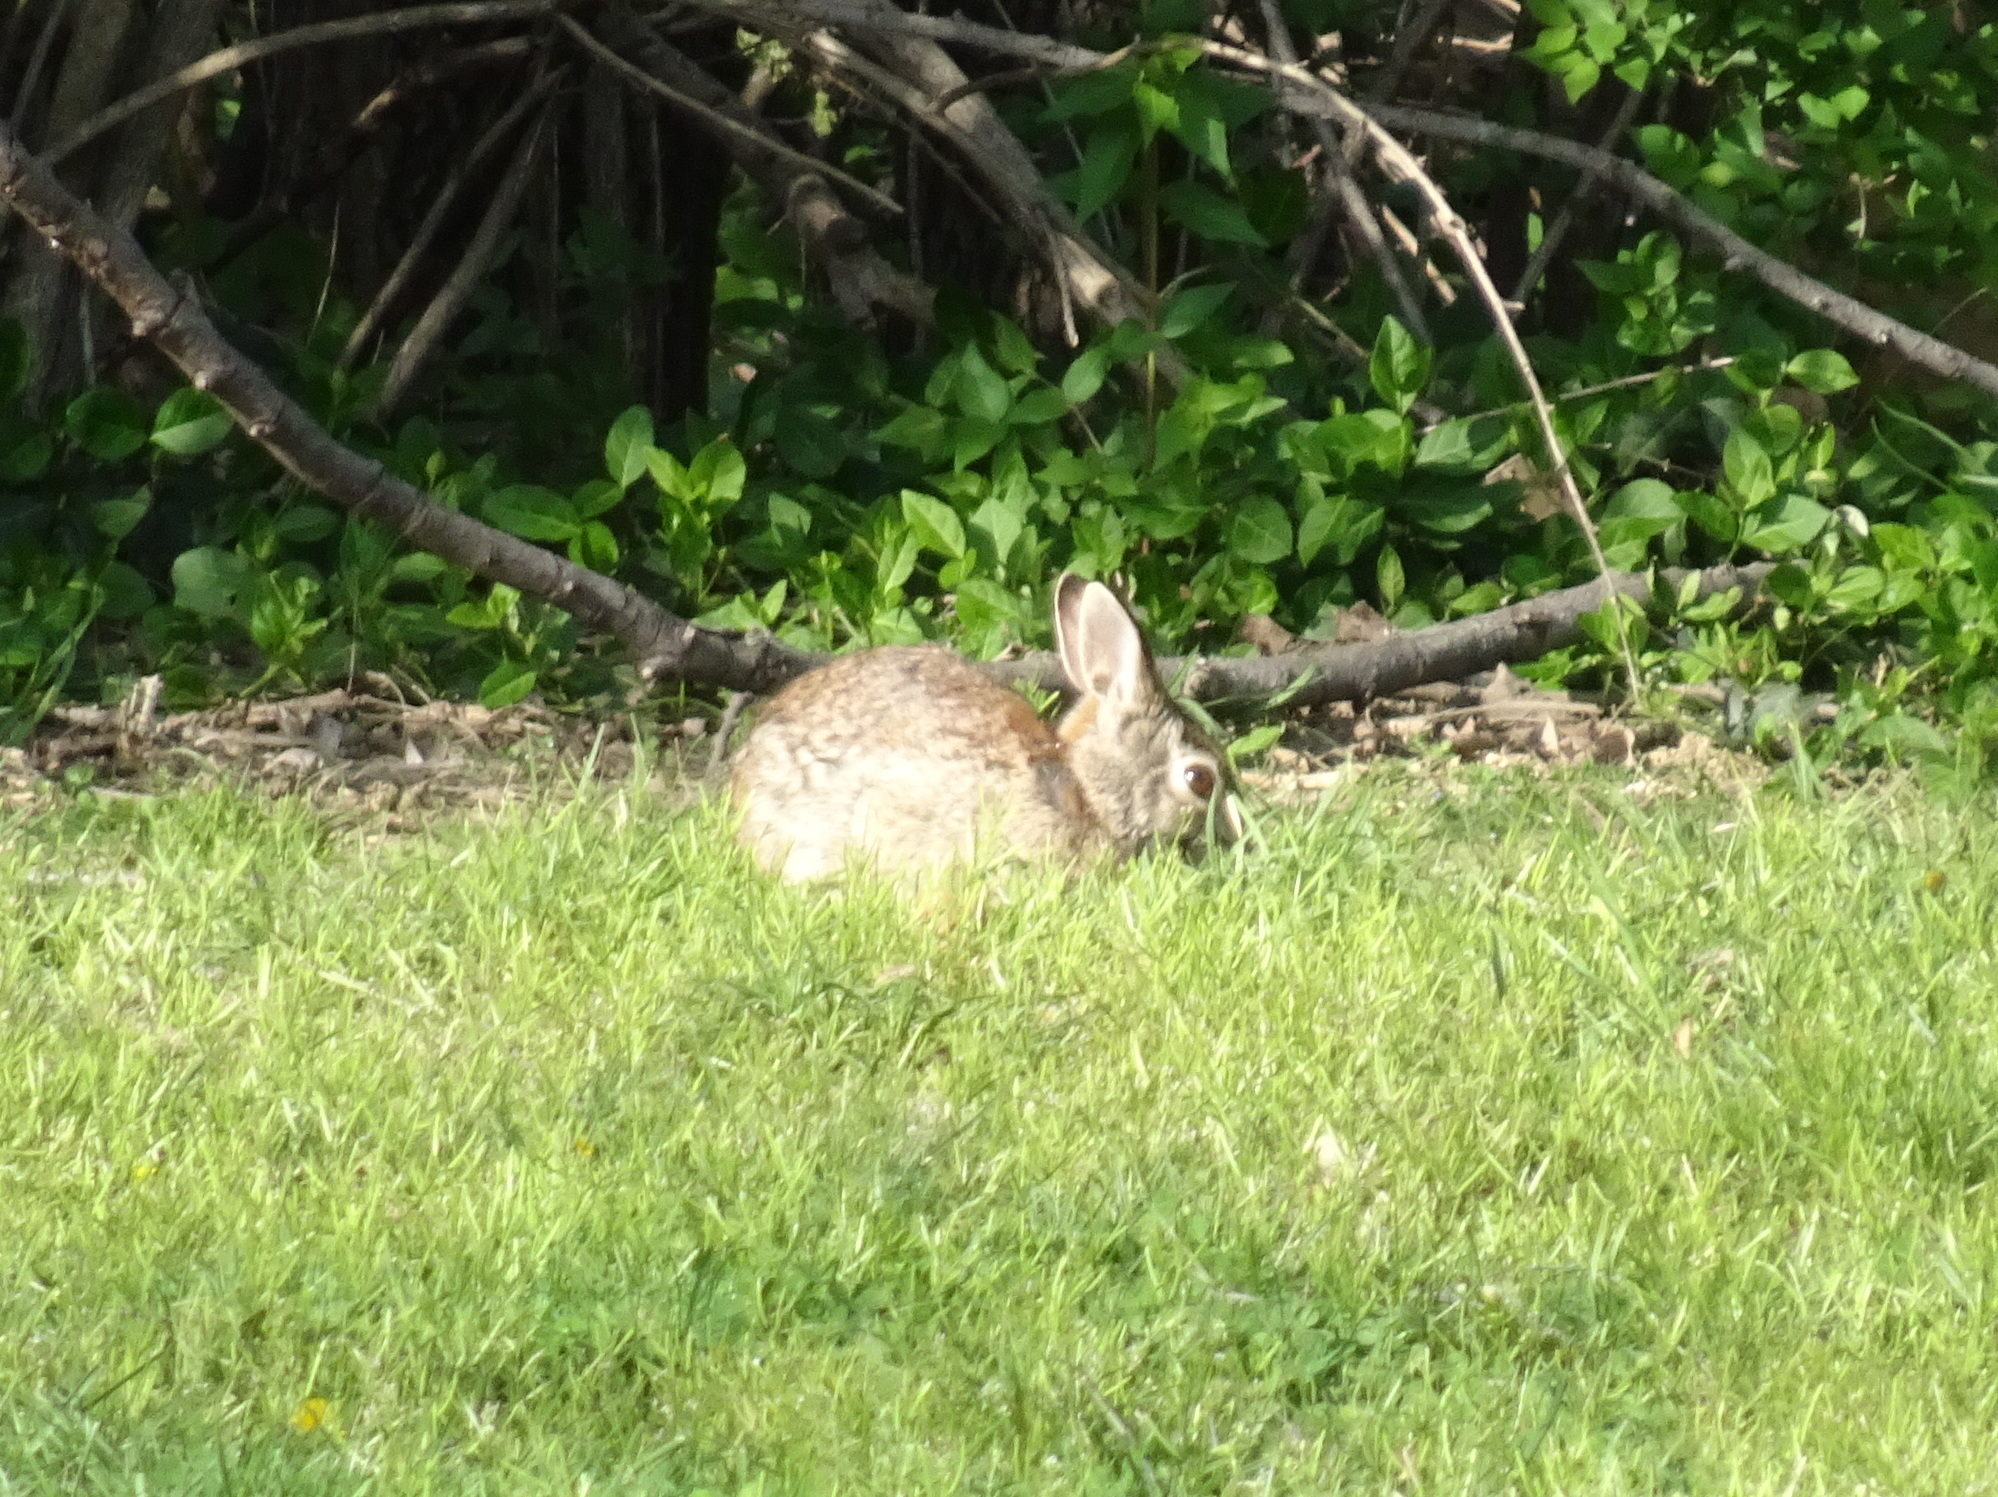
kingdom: Animalia
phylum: Chordata
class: Mammalia
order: Lagomorpha
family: Leporidae
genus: Sylvilagus
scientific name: Sylvilagus floridanus
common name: Eastern cottontail
